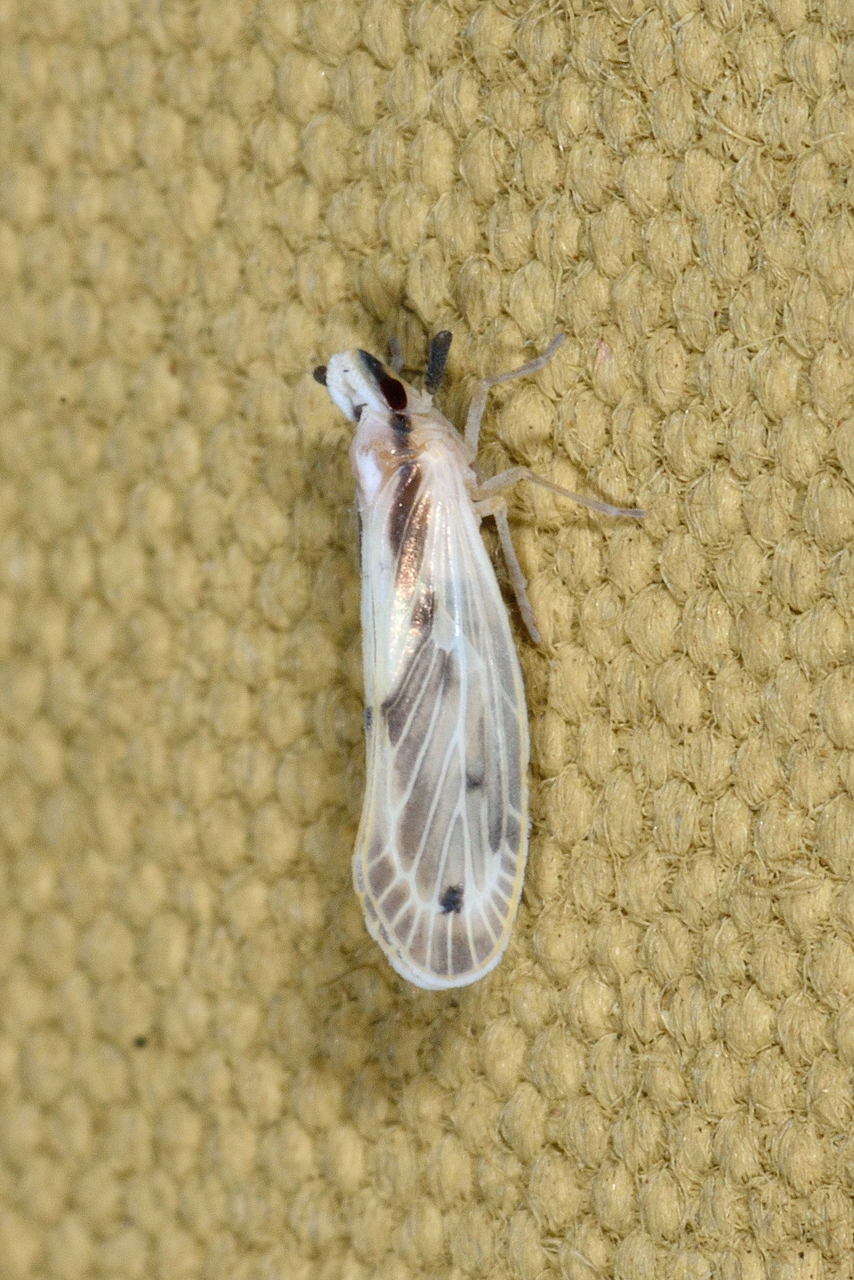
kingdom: Animalia
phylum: Arthropoda
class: Insecta
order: Hemiptera
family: Derbidae
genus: Kuranda
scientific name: Kuranda notata
